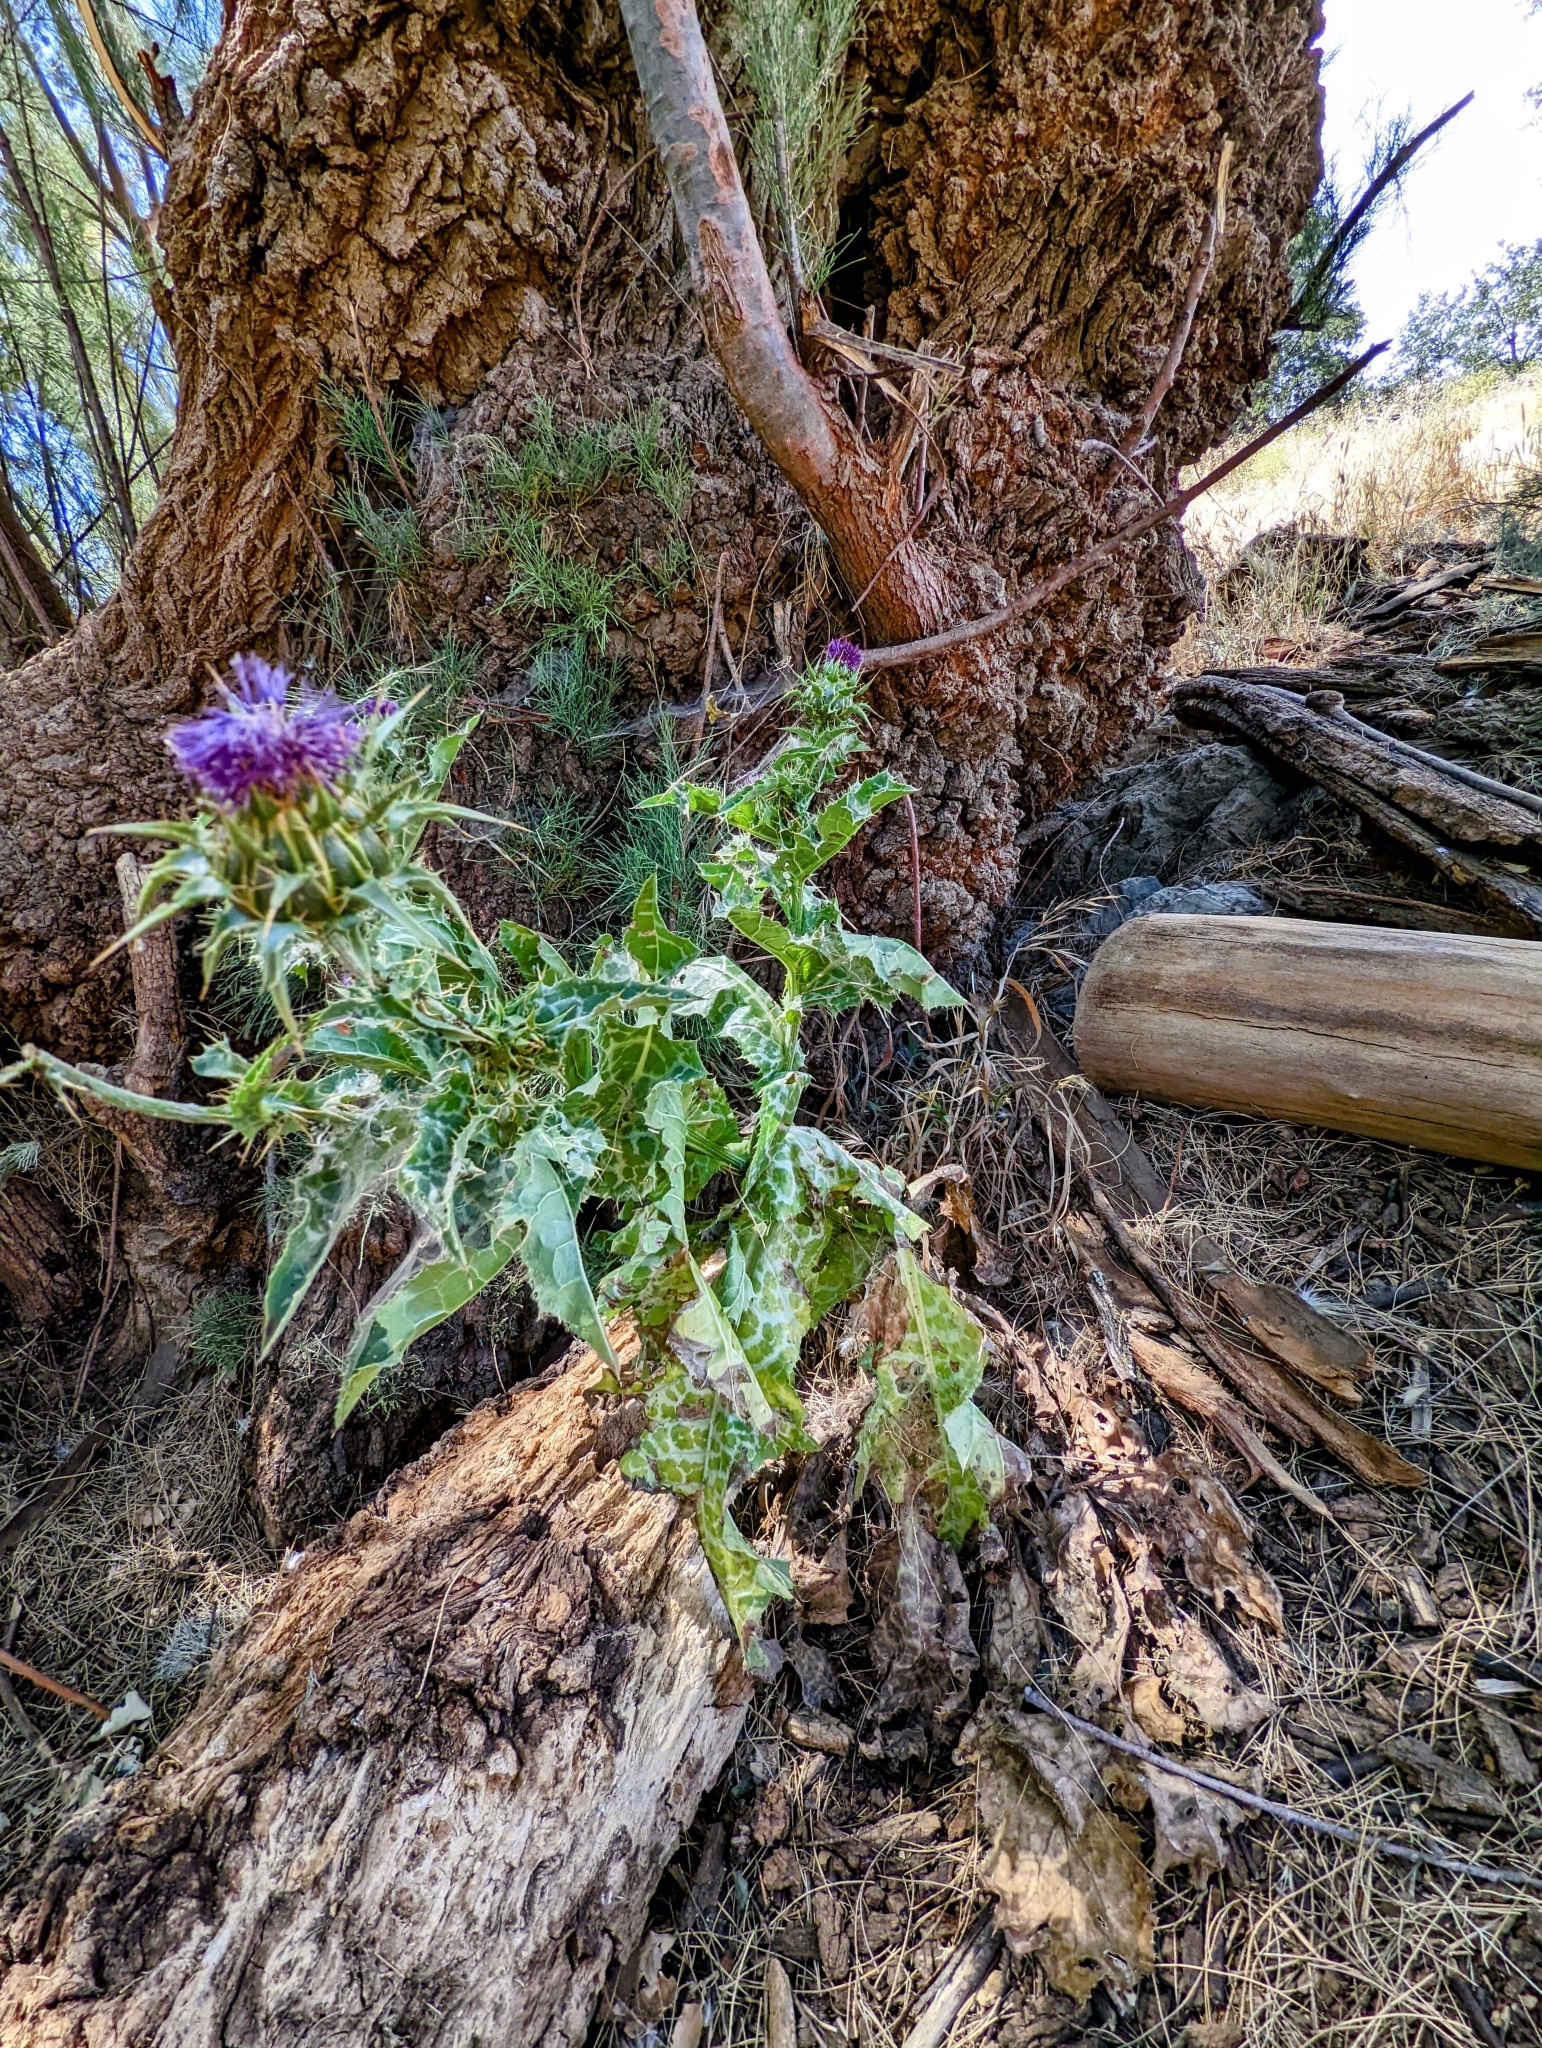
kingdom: Plantae
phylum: Tracheophyta
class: Magnoliopsida
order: Asterales
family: Asteraceae
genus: Silybum
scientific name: Silybum marianum
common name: Milk thistle
